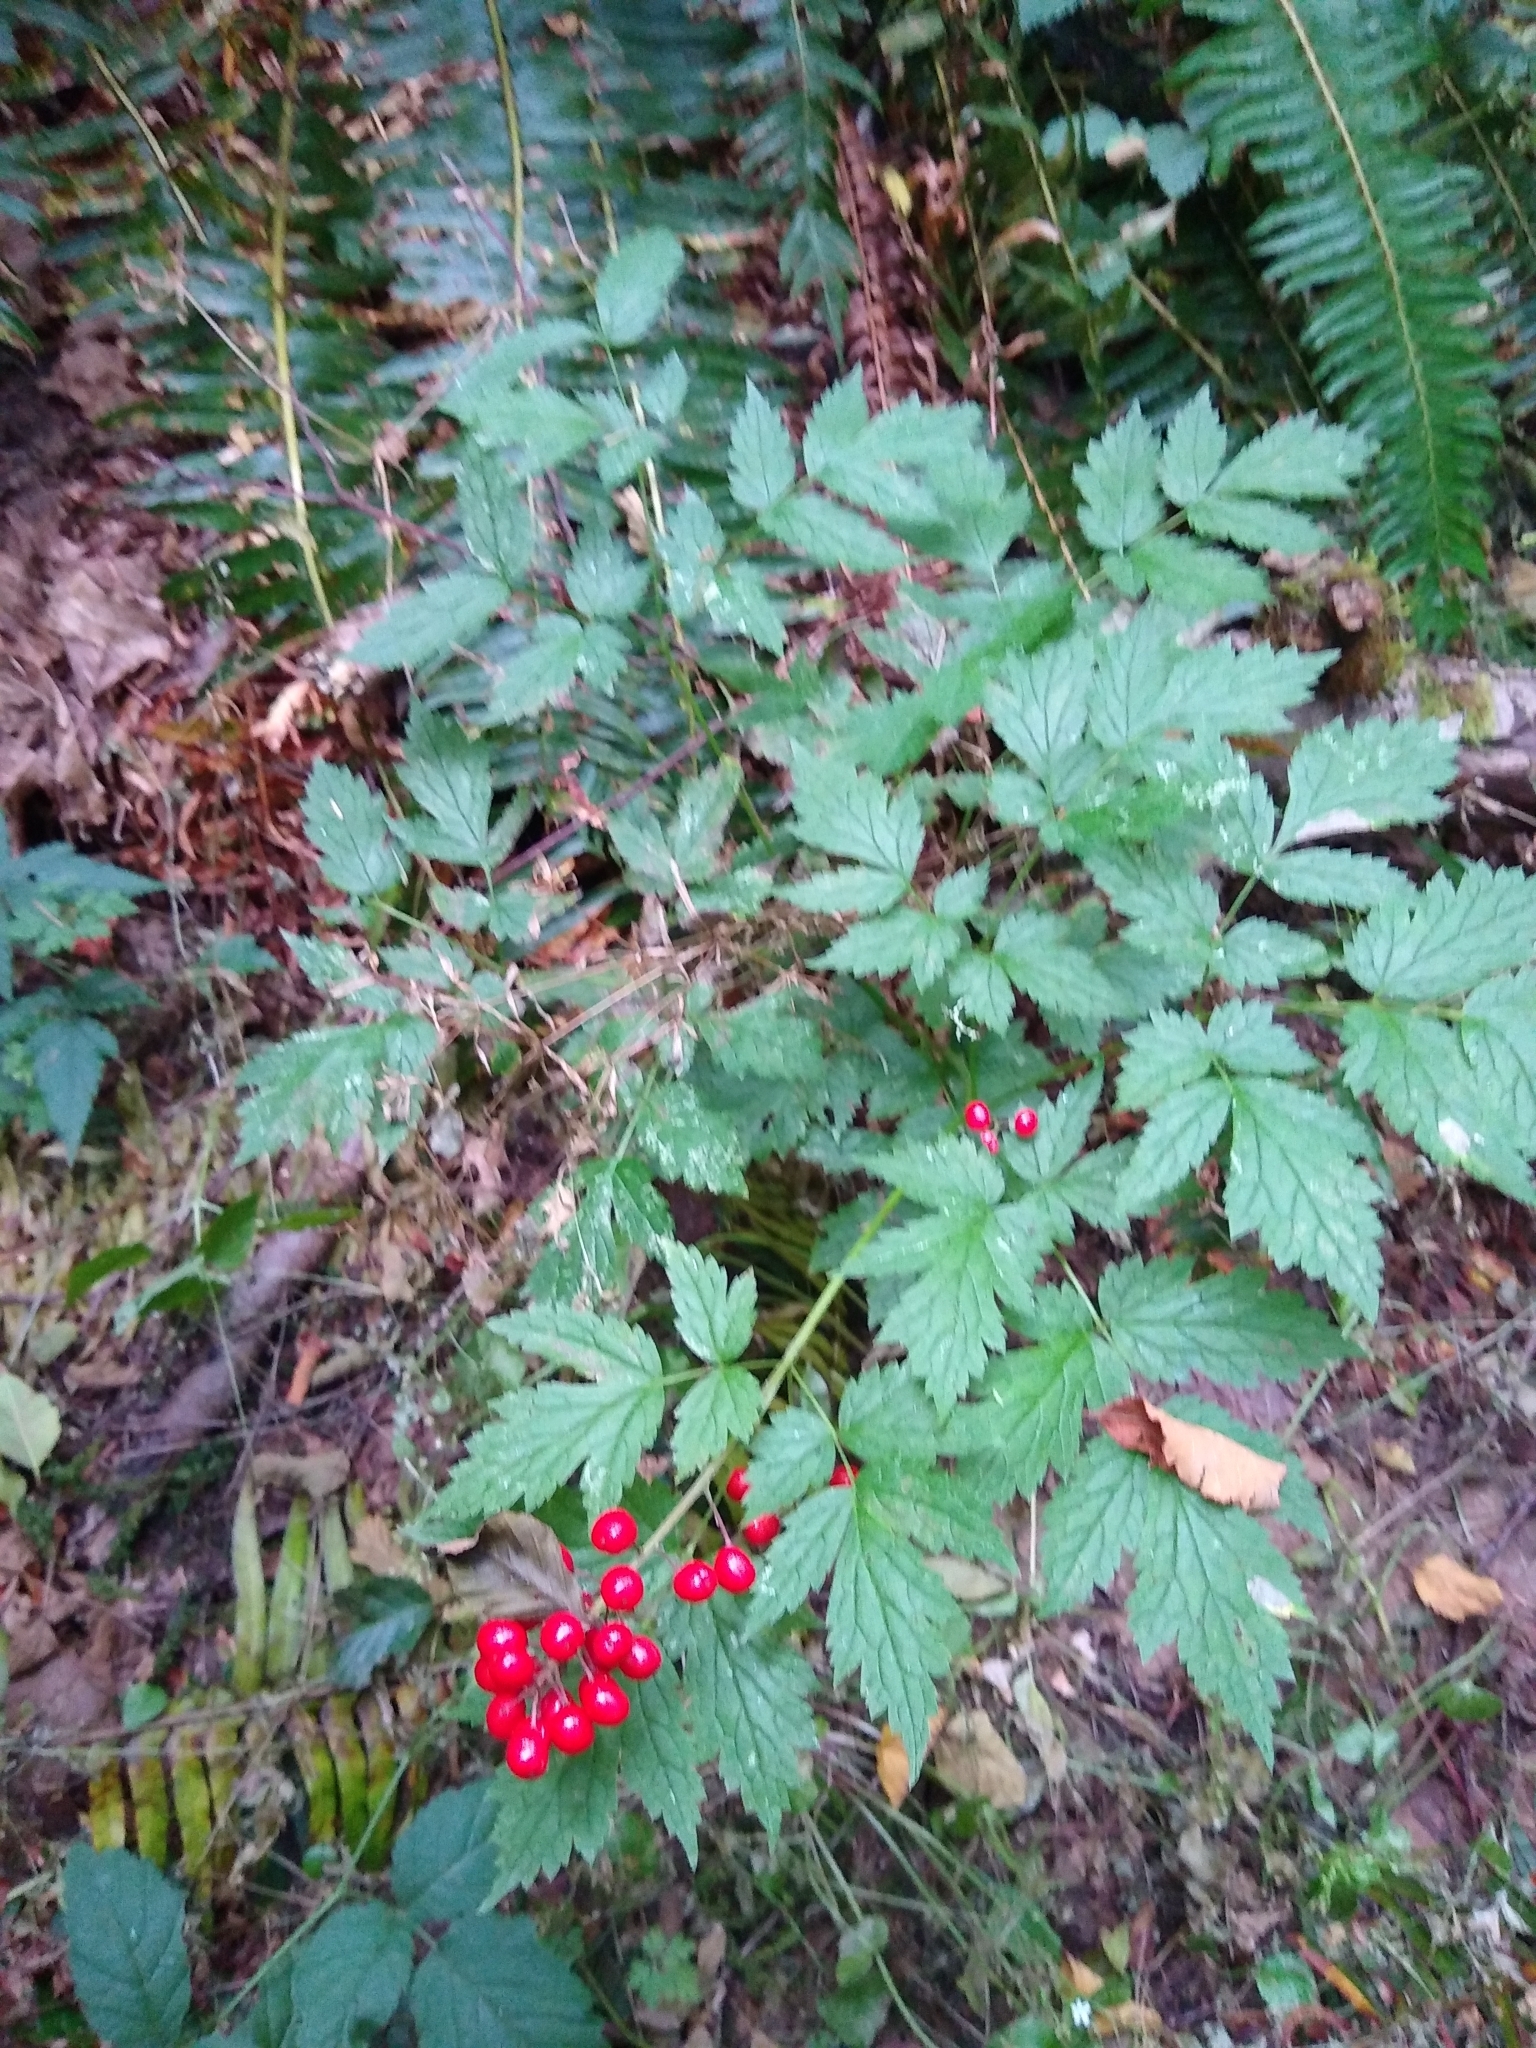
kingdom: Plantae
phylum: Tracheophyta
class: Magnoliopsida
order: Ranunculales
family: Ranunculaceae
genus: Actaea
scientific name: Actaea rubra
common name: Red baneberry
